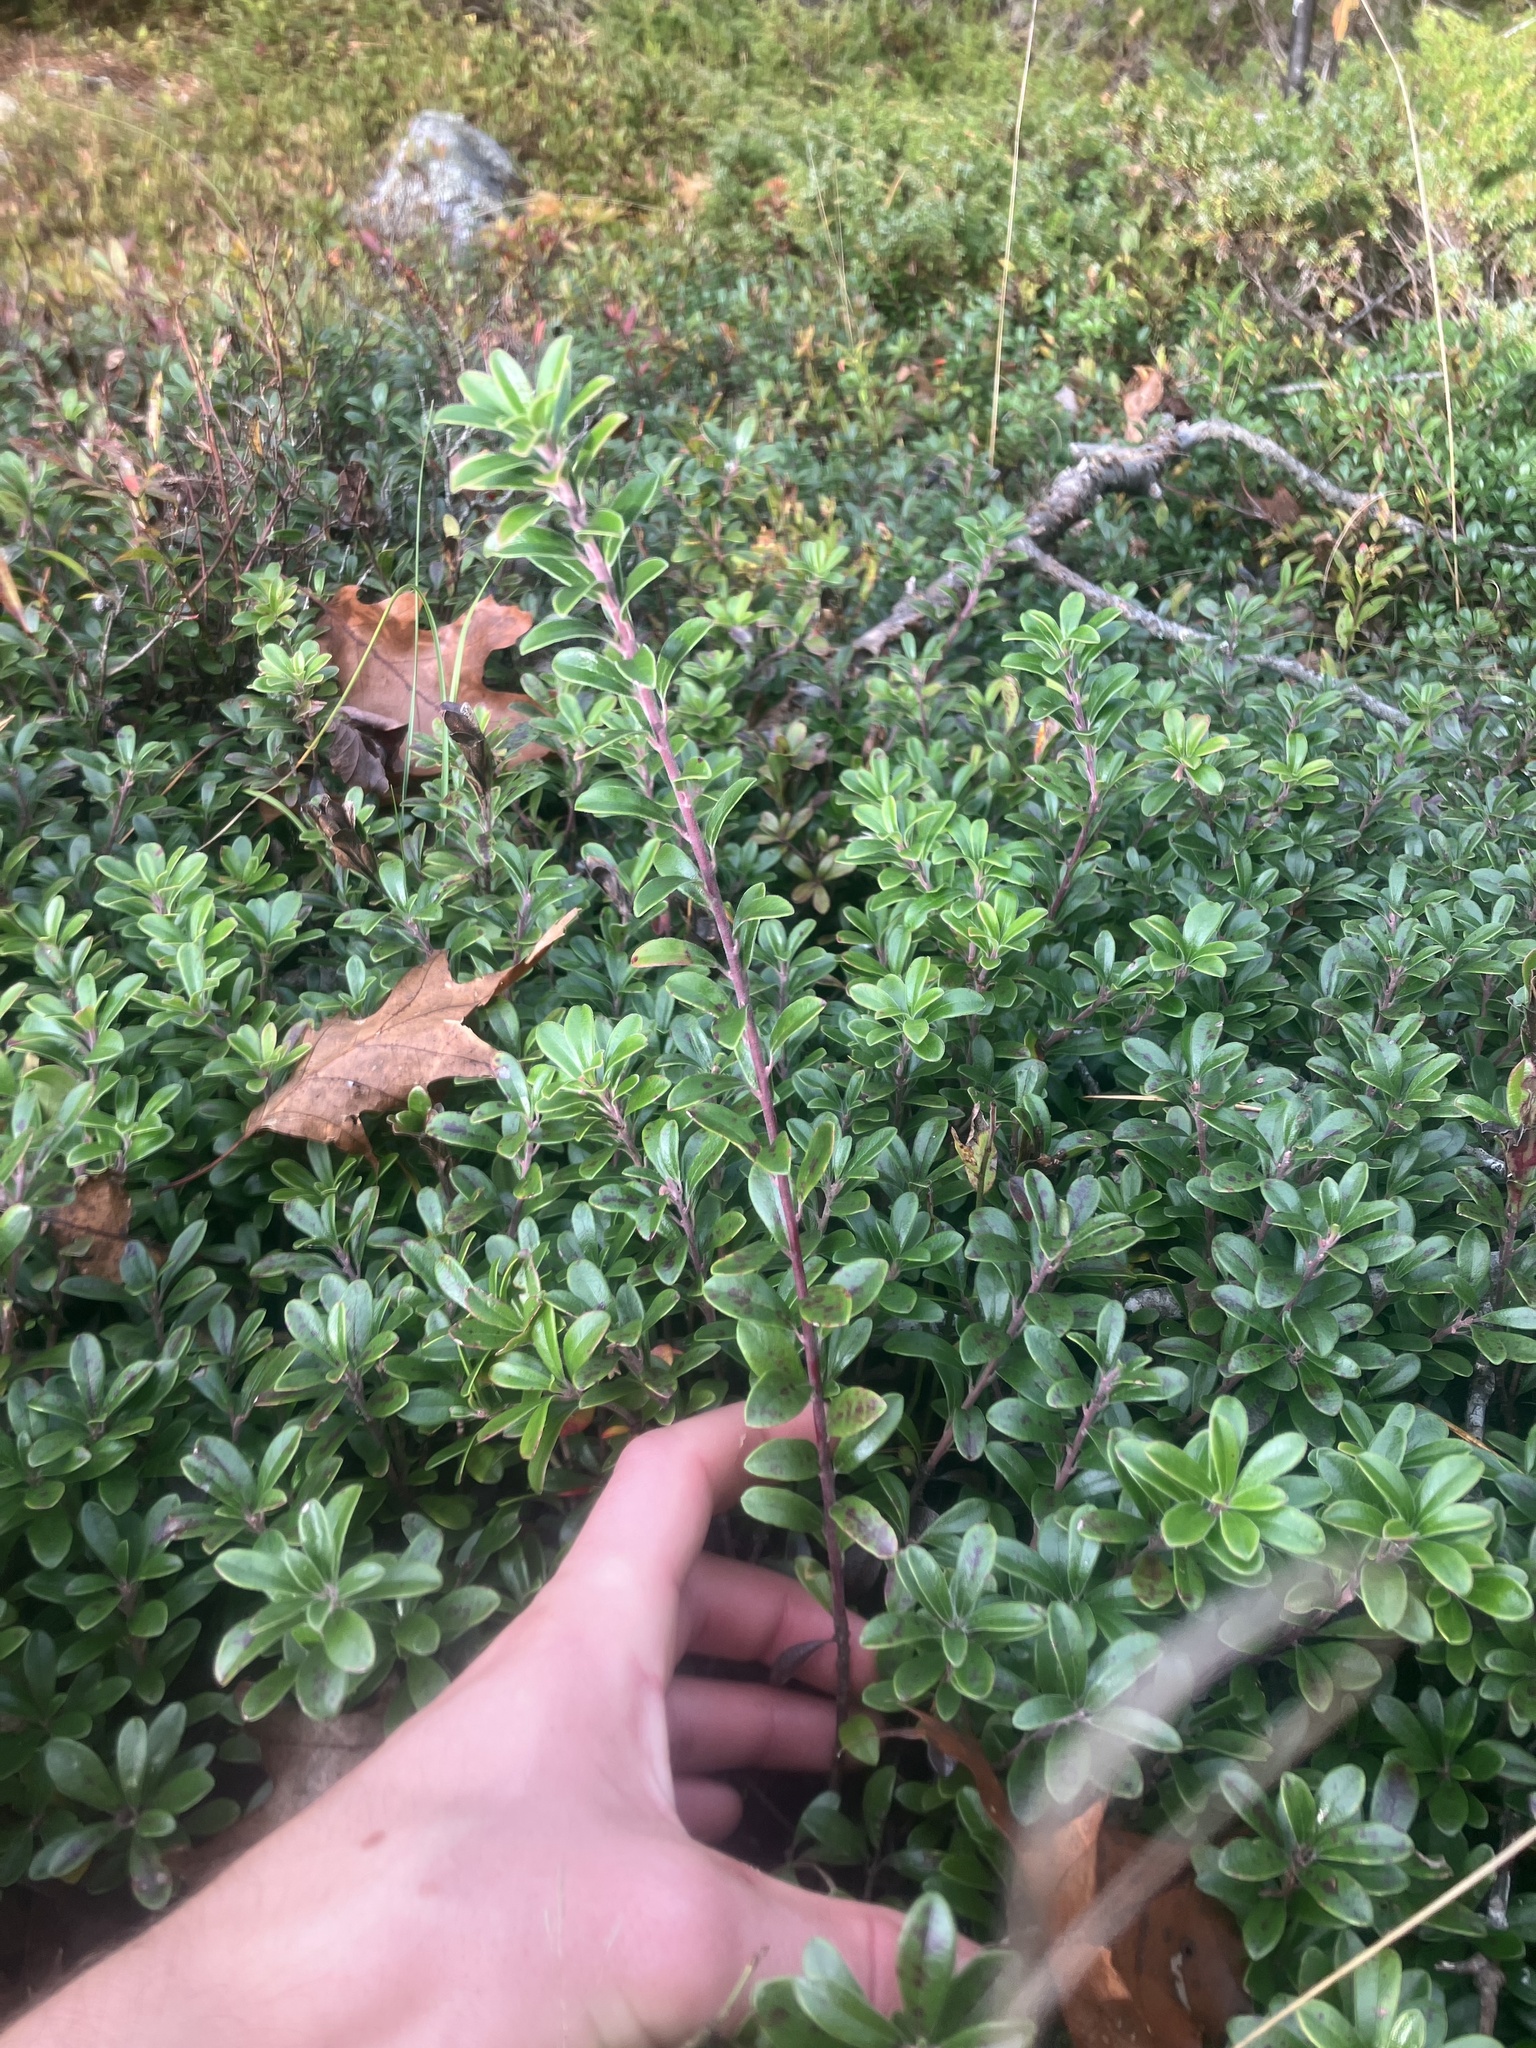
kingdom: Plantae
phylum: Tracheophyta
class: Magnoliopsida
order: Ericales
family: Ericaceae
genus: Arctostaphylos
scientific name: Arctostaphylos uva-ursi
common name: Bearberry
